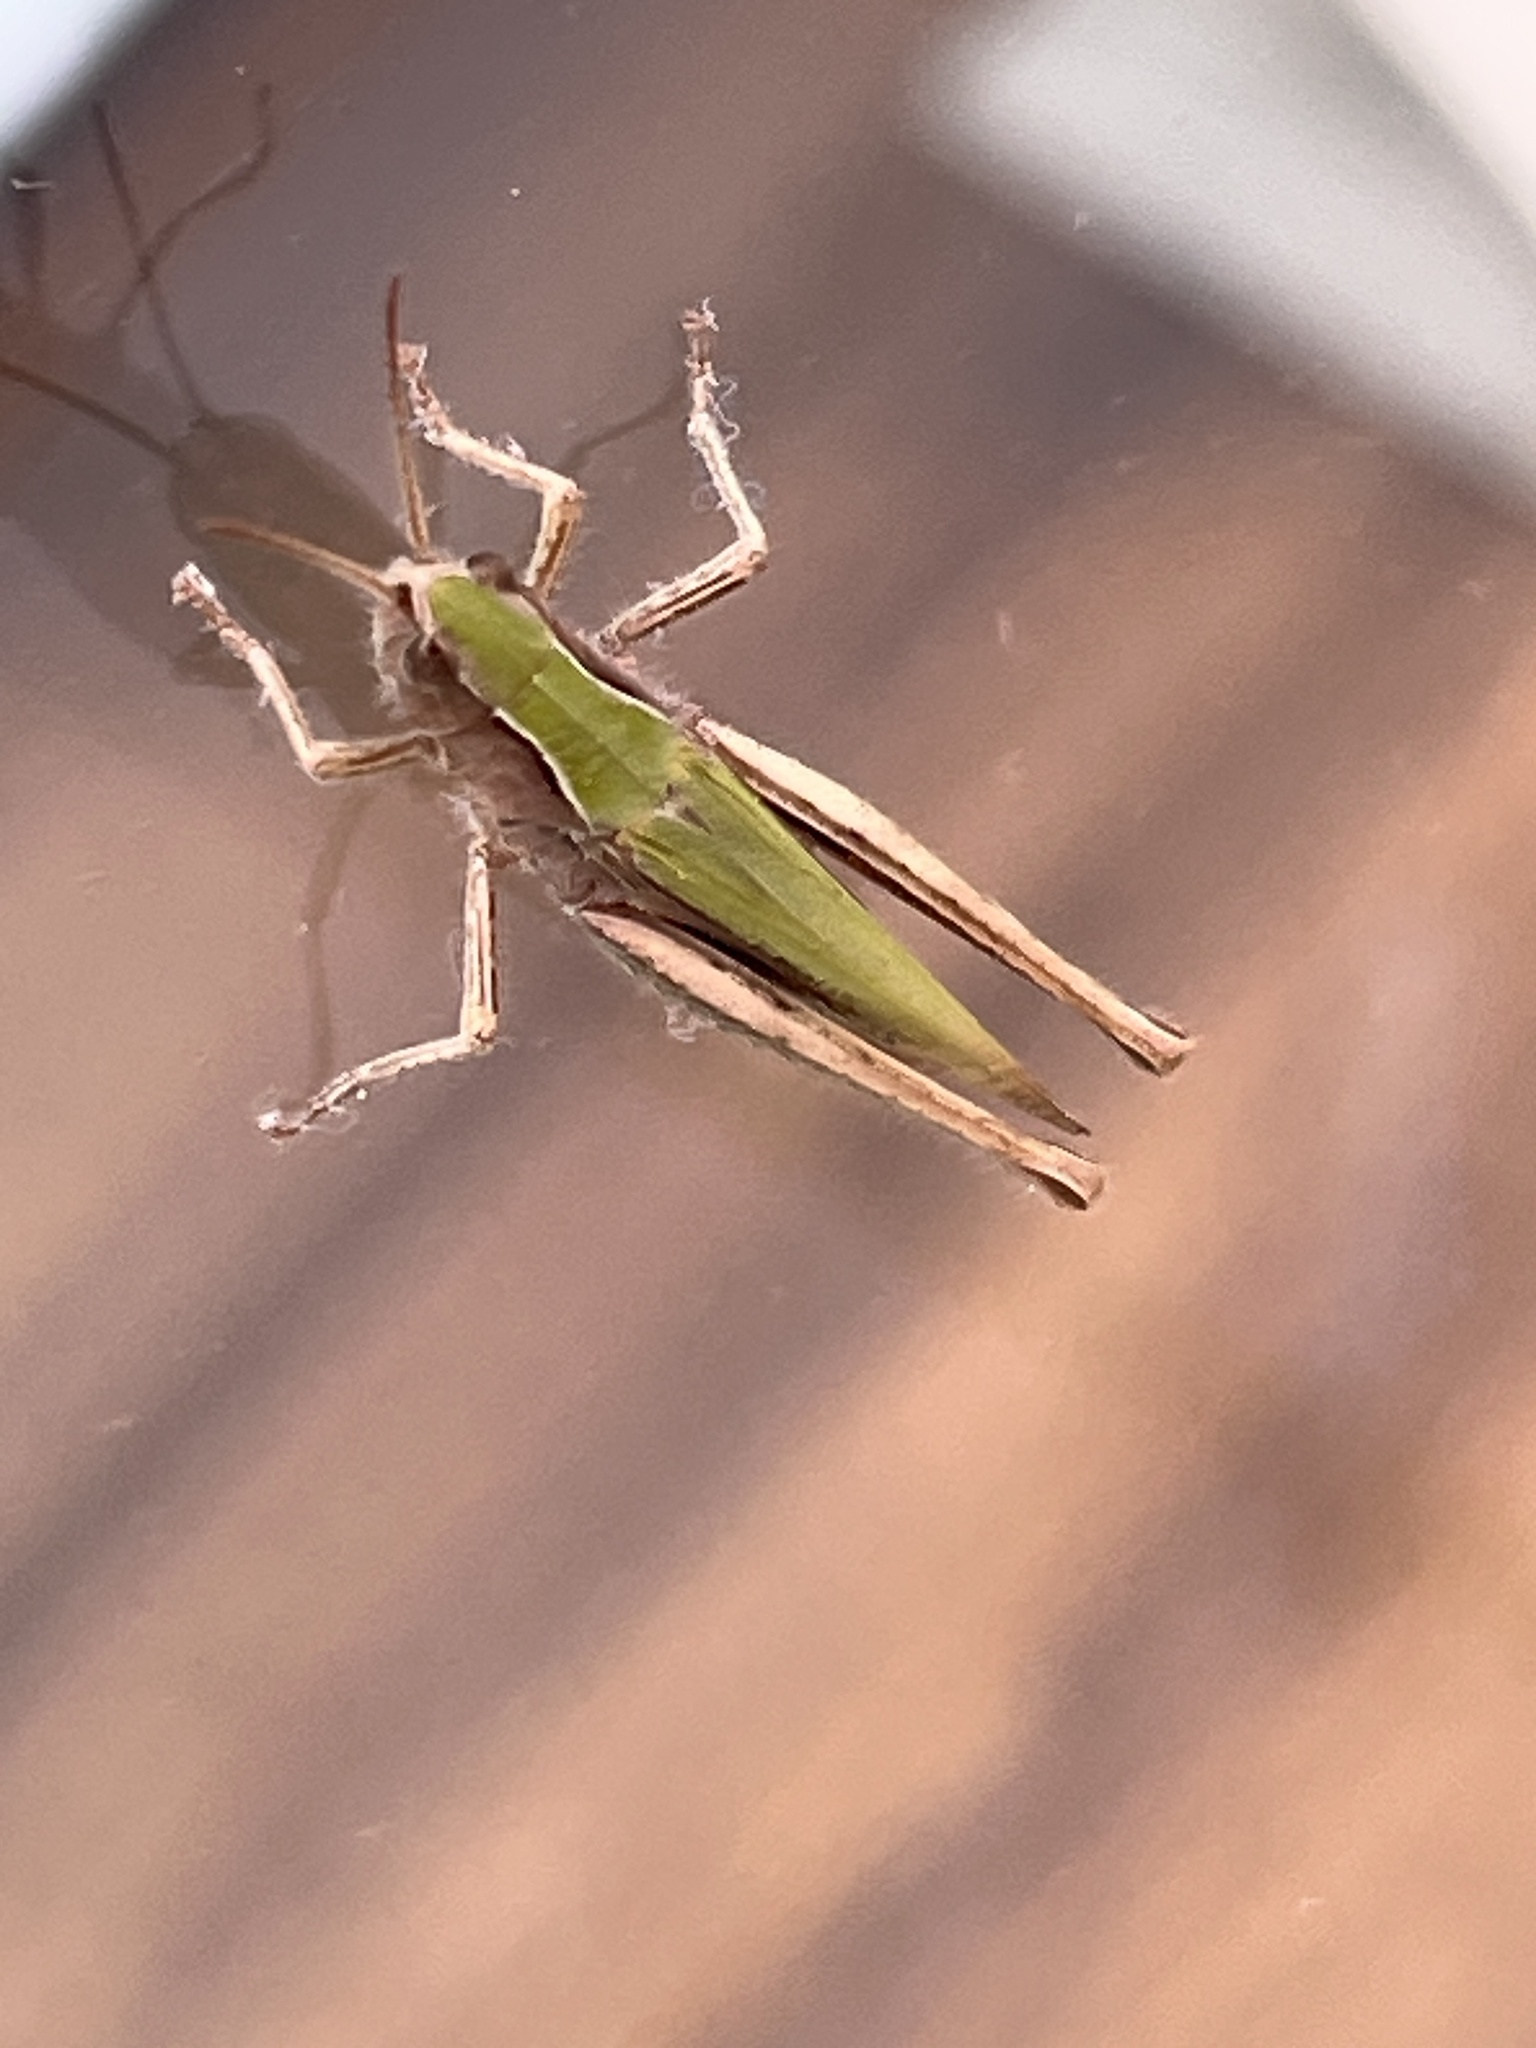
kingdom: Animalia
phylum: Arthropoda
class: Insecta
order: Orthoptera
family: Acrididae
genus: Chorthippus
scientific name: Chorthippus dorsatus
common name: Steppe grasshopper
